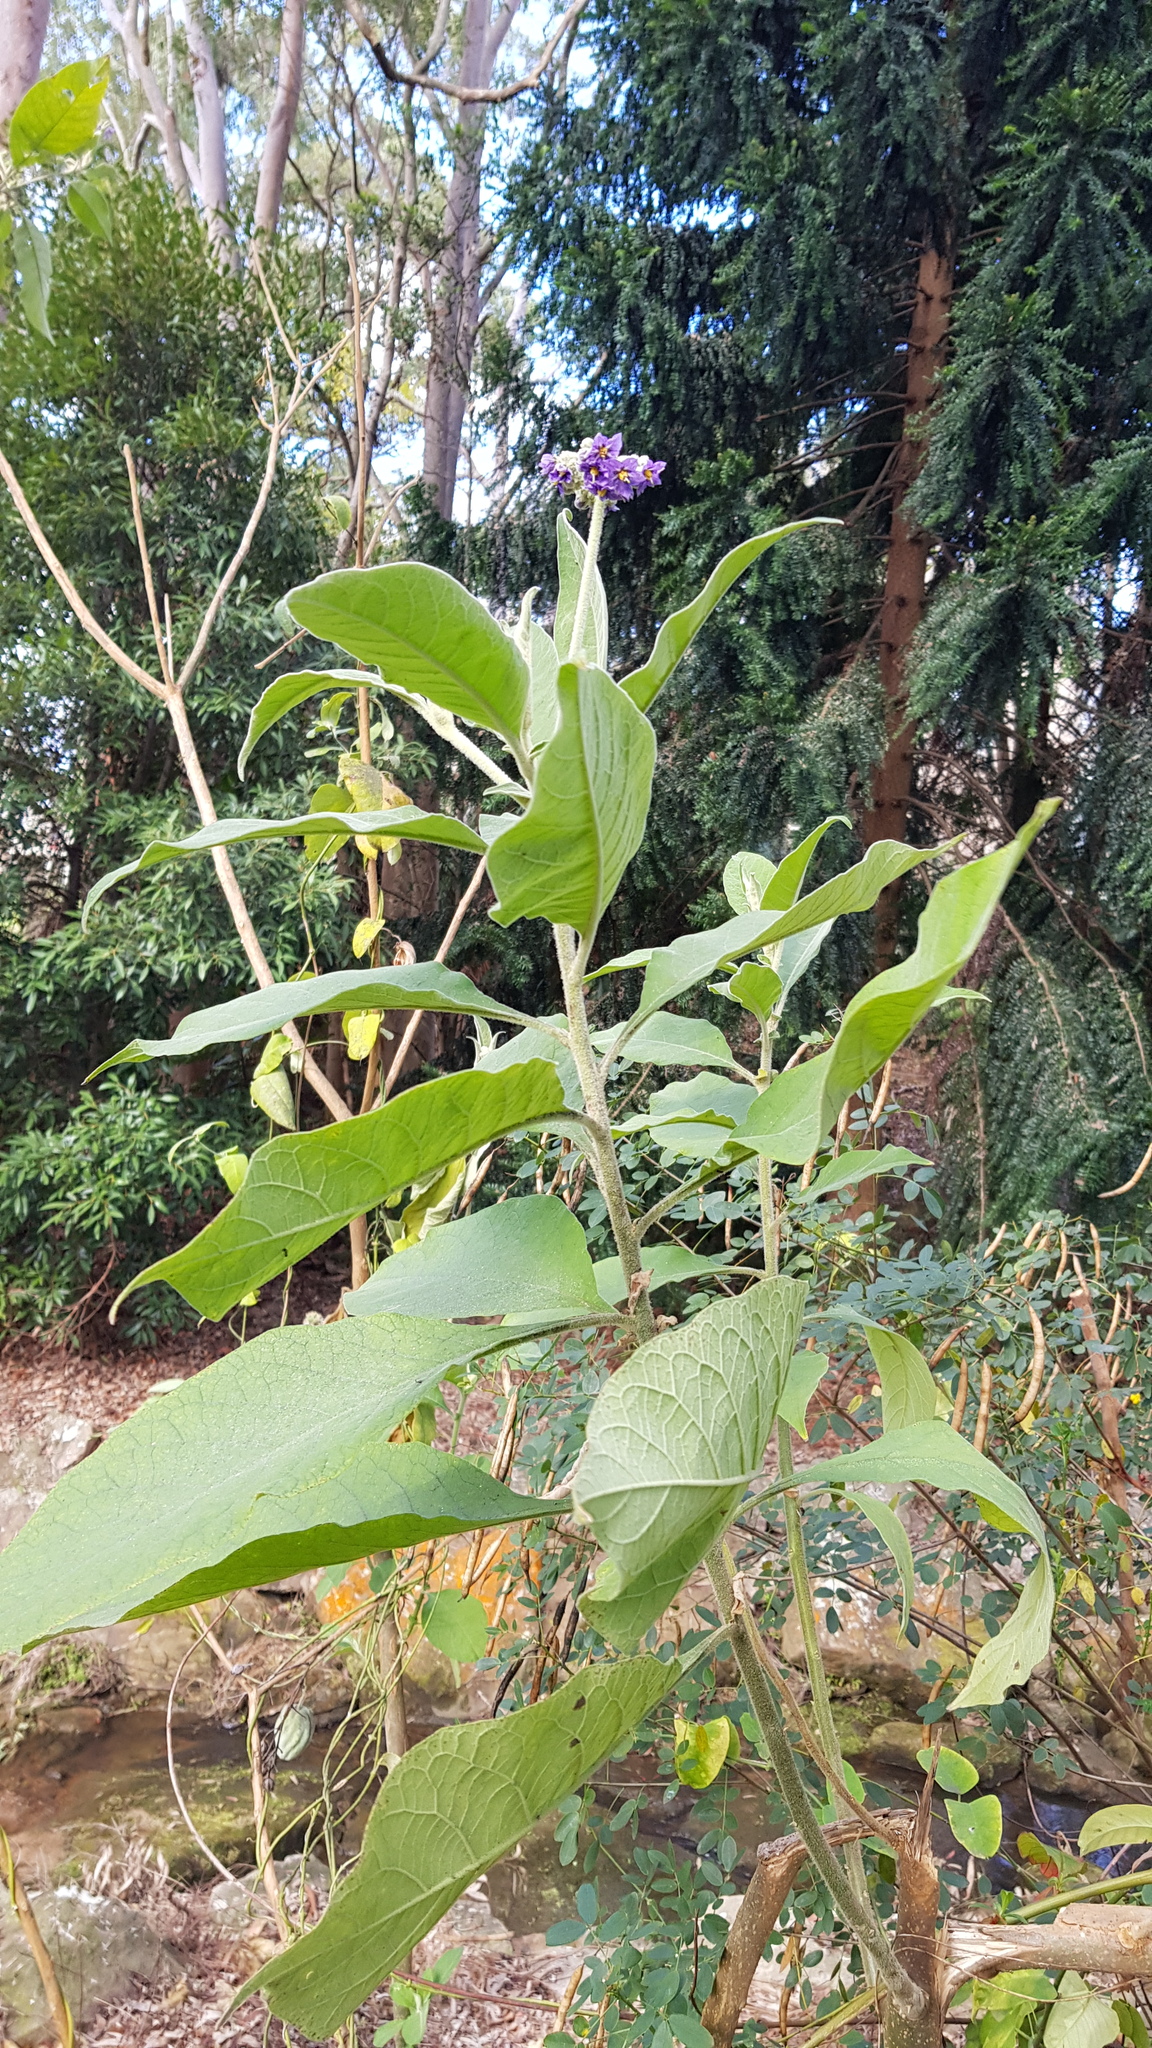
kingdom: Plantae
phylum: Tracheophyta
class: Magnoliopsida
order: Solanales
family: Solanaceae
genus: Solanum
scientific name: Solanum mauritianum
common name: Earleaf nightshade
